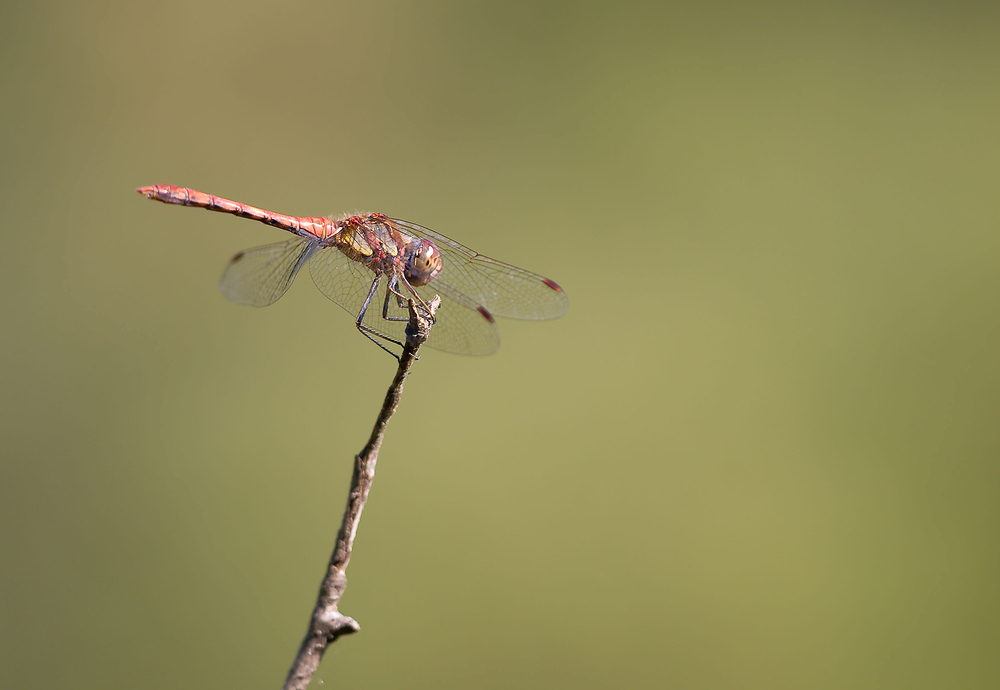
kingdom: Animalia
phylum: Arthropoda
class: Insecta
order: Odonata
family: Libellulidae
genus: Sympetrum
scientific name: Sympetrum striolatum
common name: Common darter
